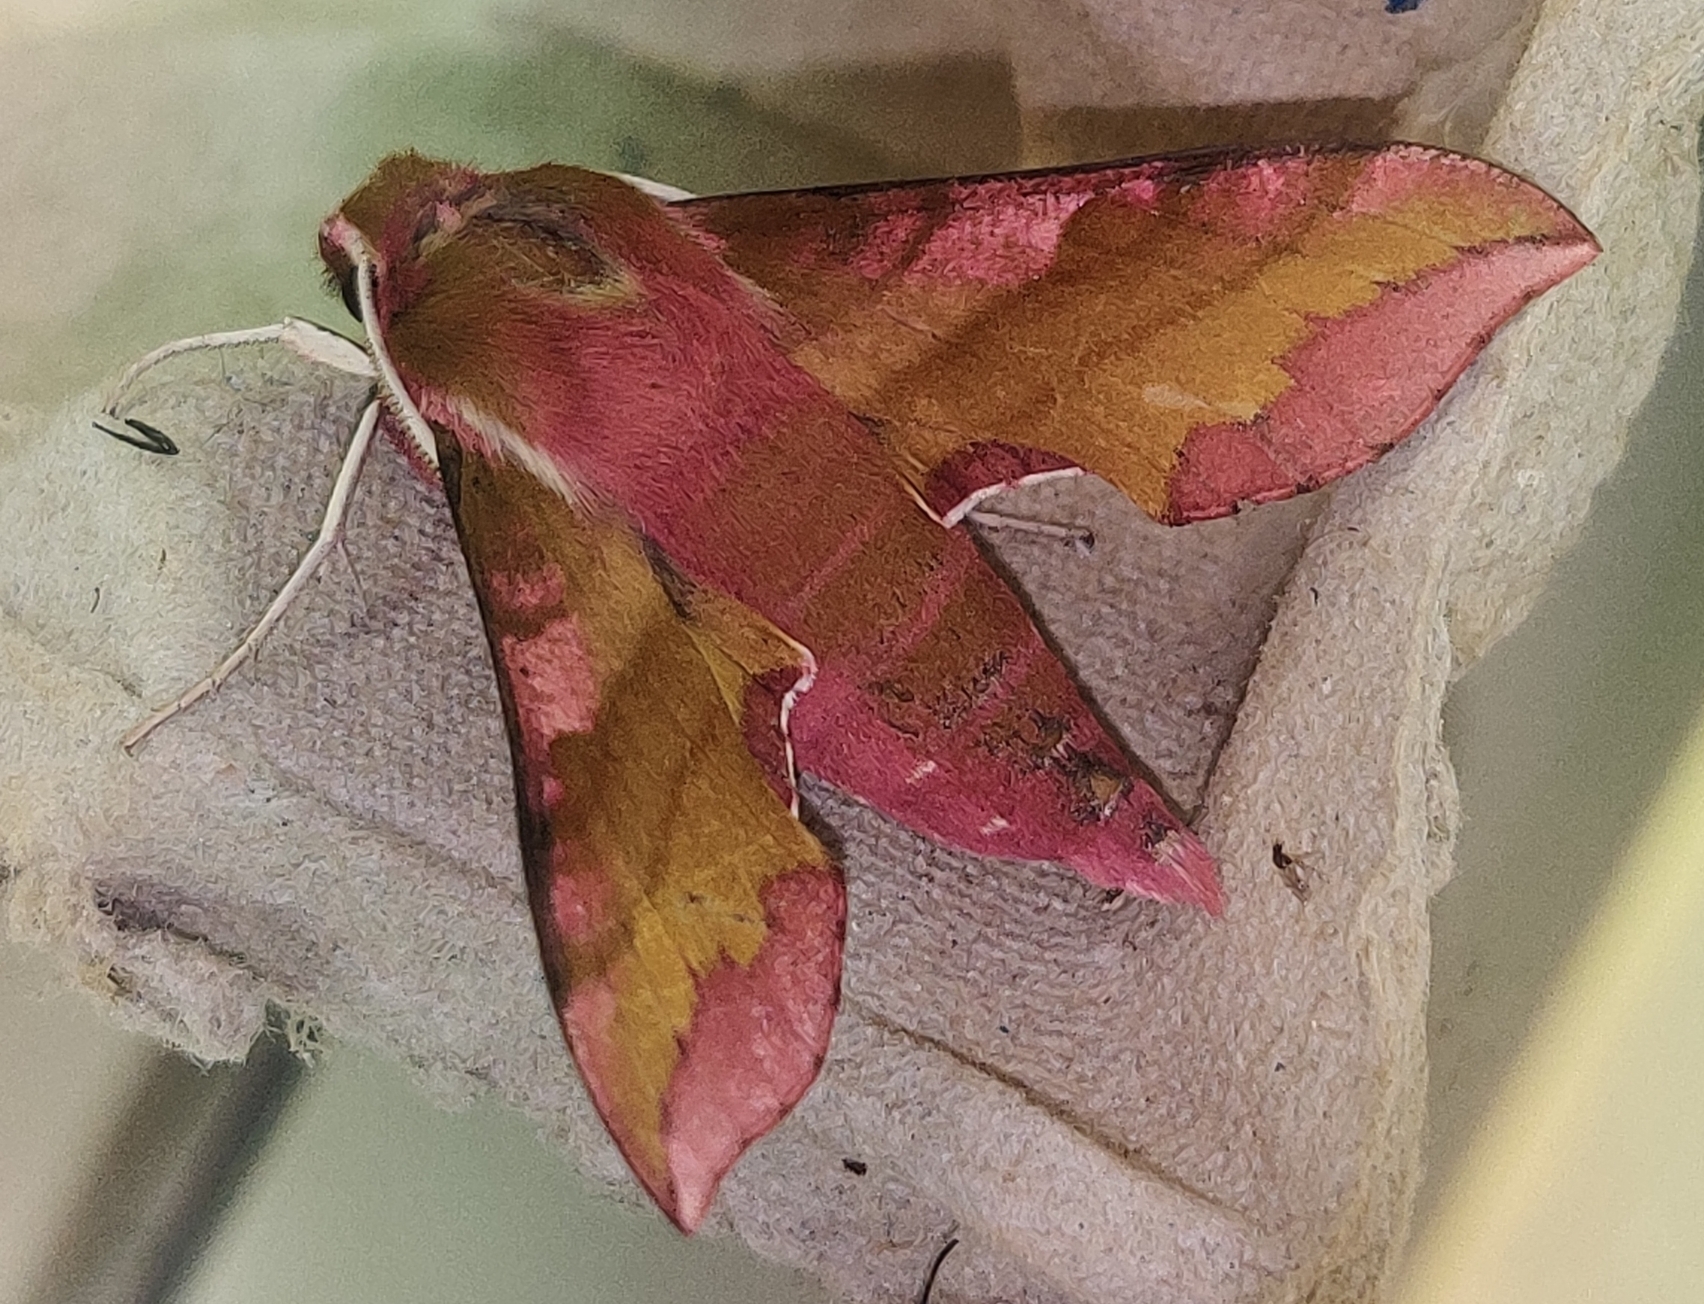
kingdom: Animalia
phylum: Arthropoda
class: Insecta
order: Lepidoptera
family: Sphingidae
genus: Deilephila
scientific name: Deilephila porcellus
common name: Small elephant hawk-moth
